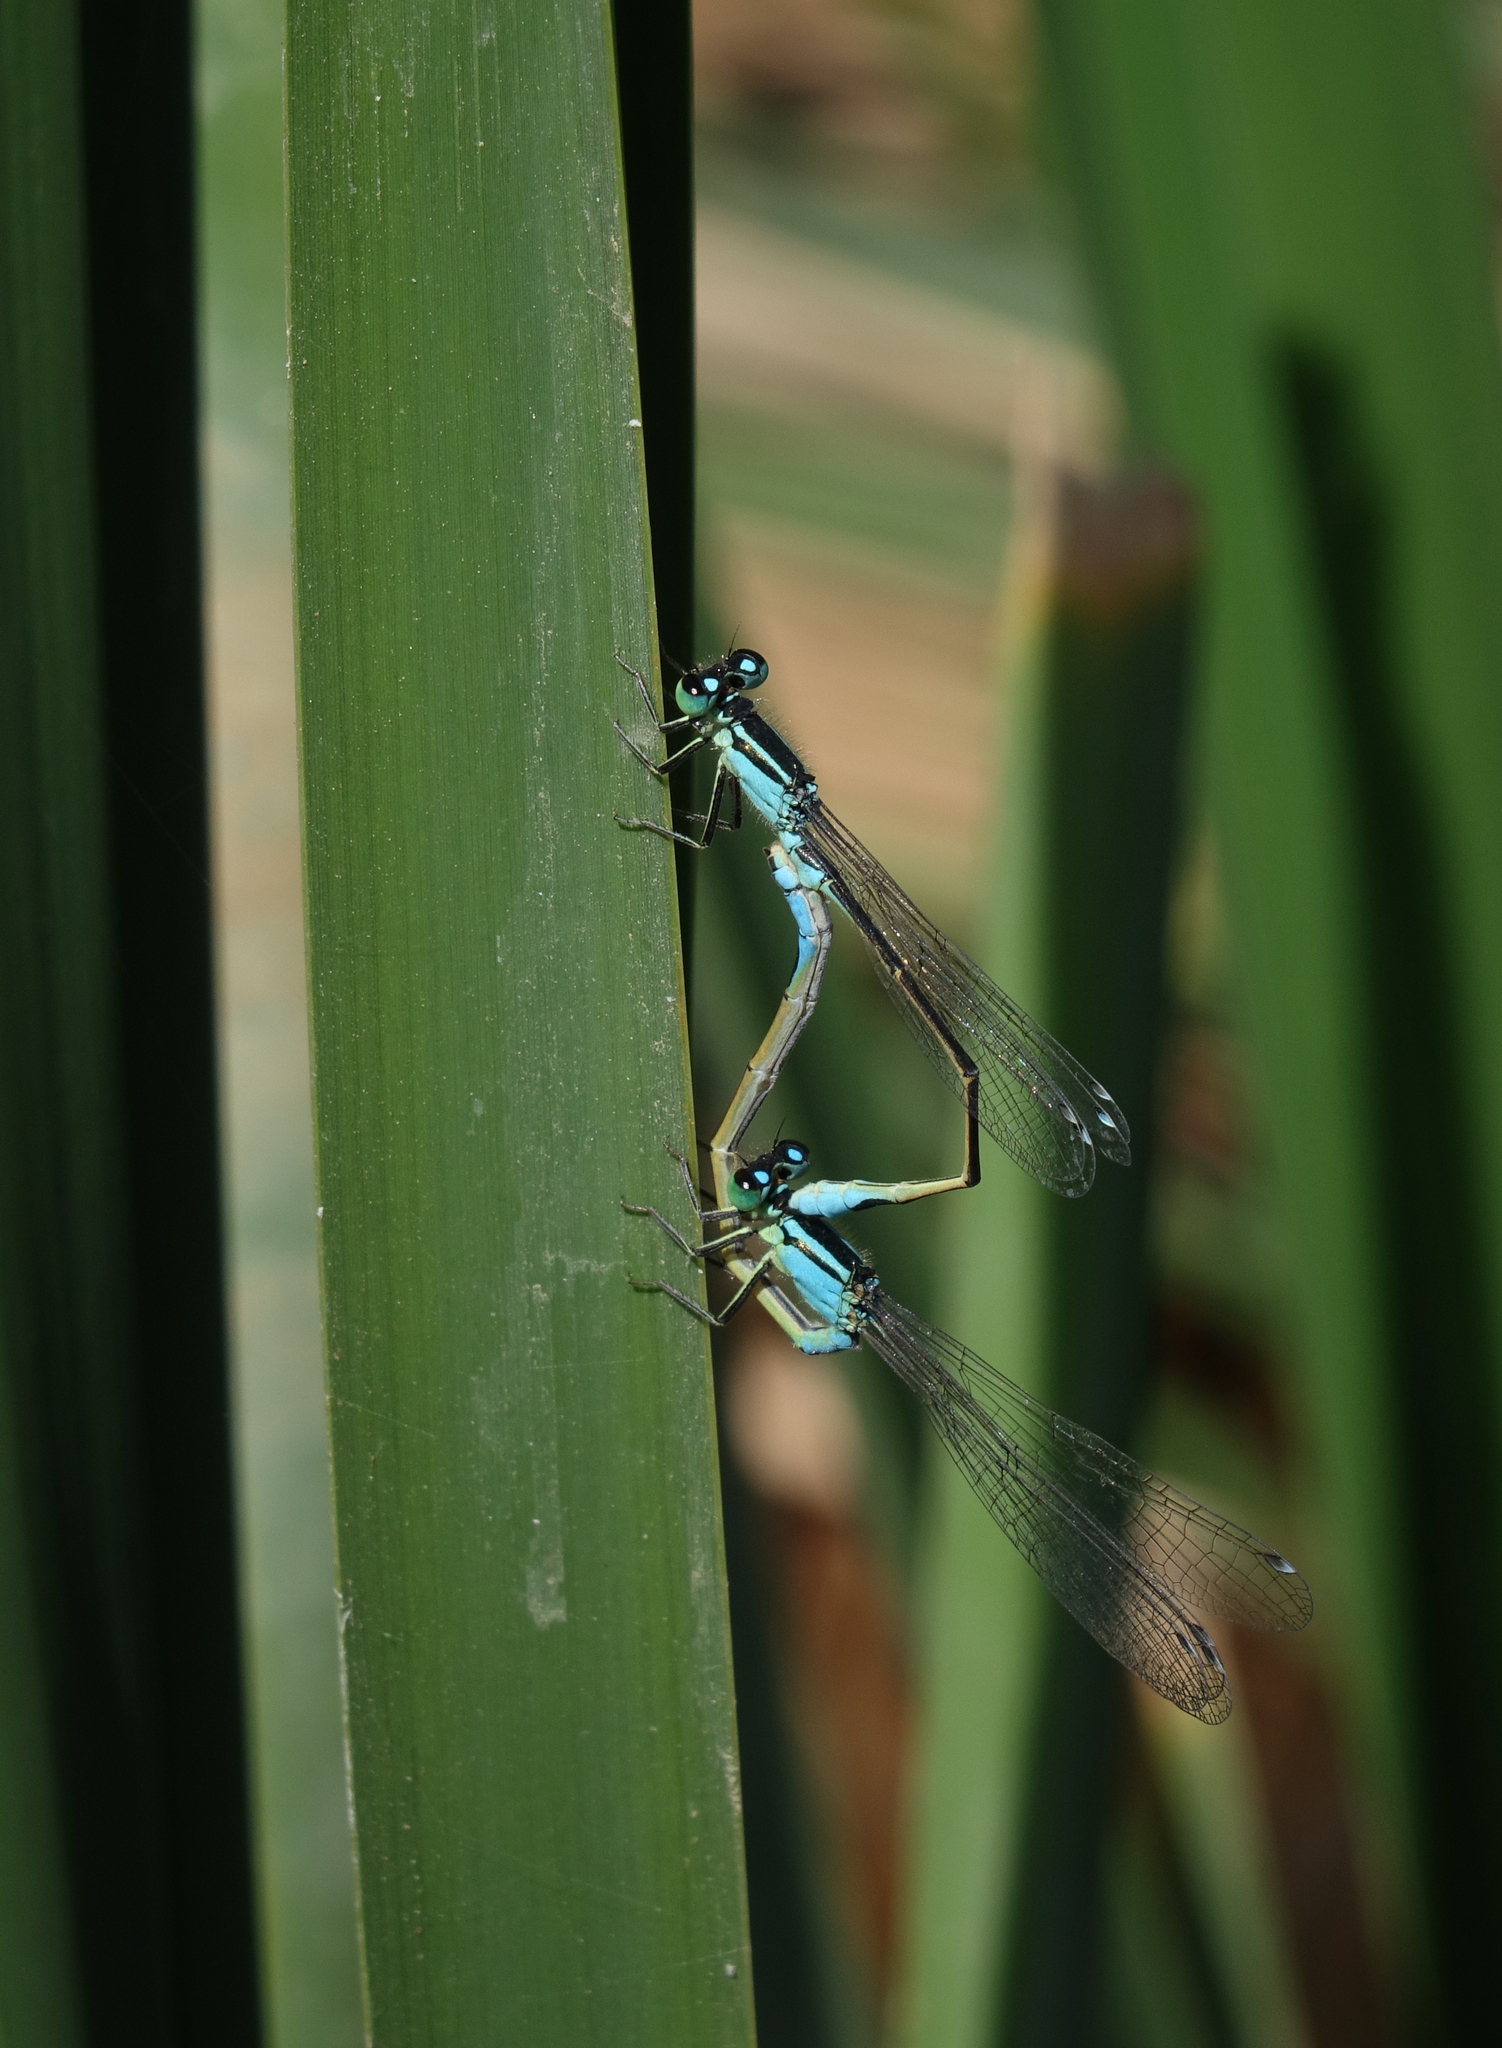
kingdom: Animalia
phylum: Arthropoda
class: Insecta
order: Odonata
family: Coenagrionidae
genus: Ischnura
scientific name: Ischnura elegans
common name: Blue-tailed damselfly
